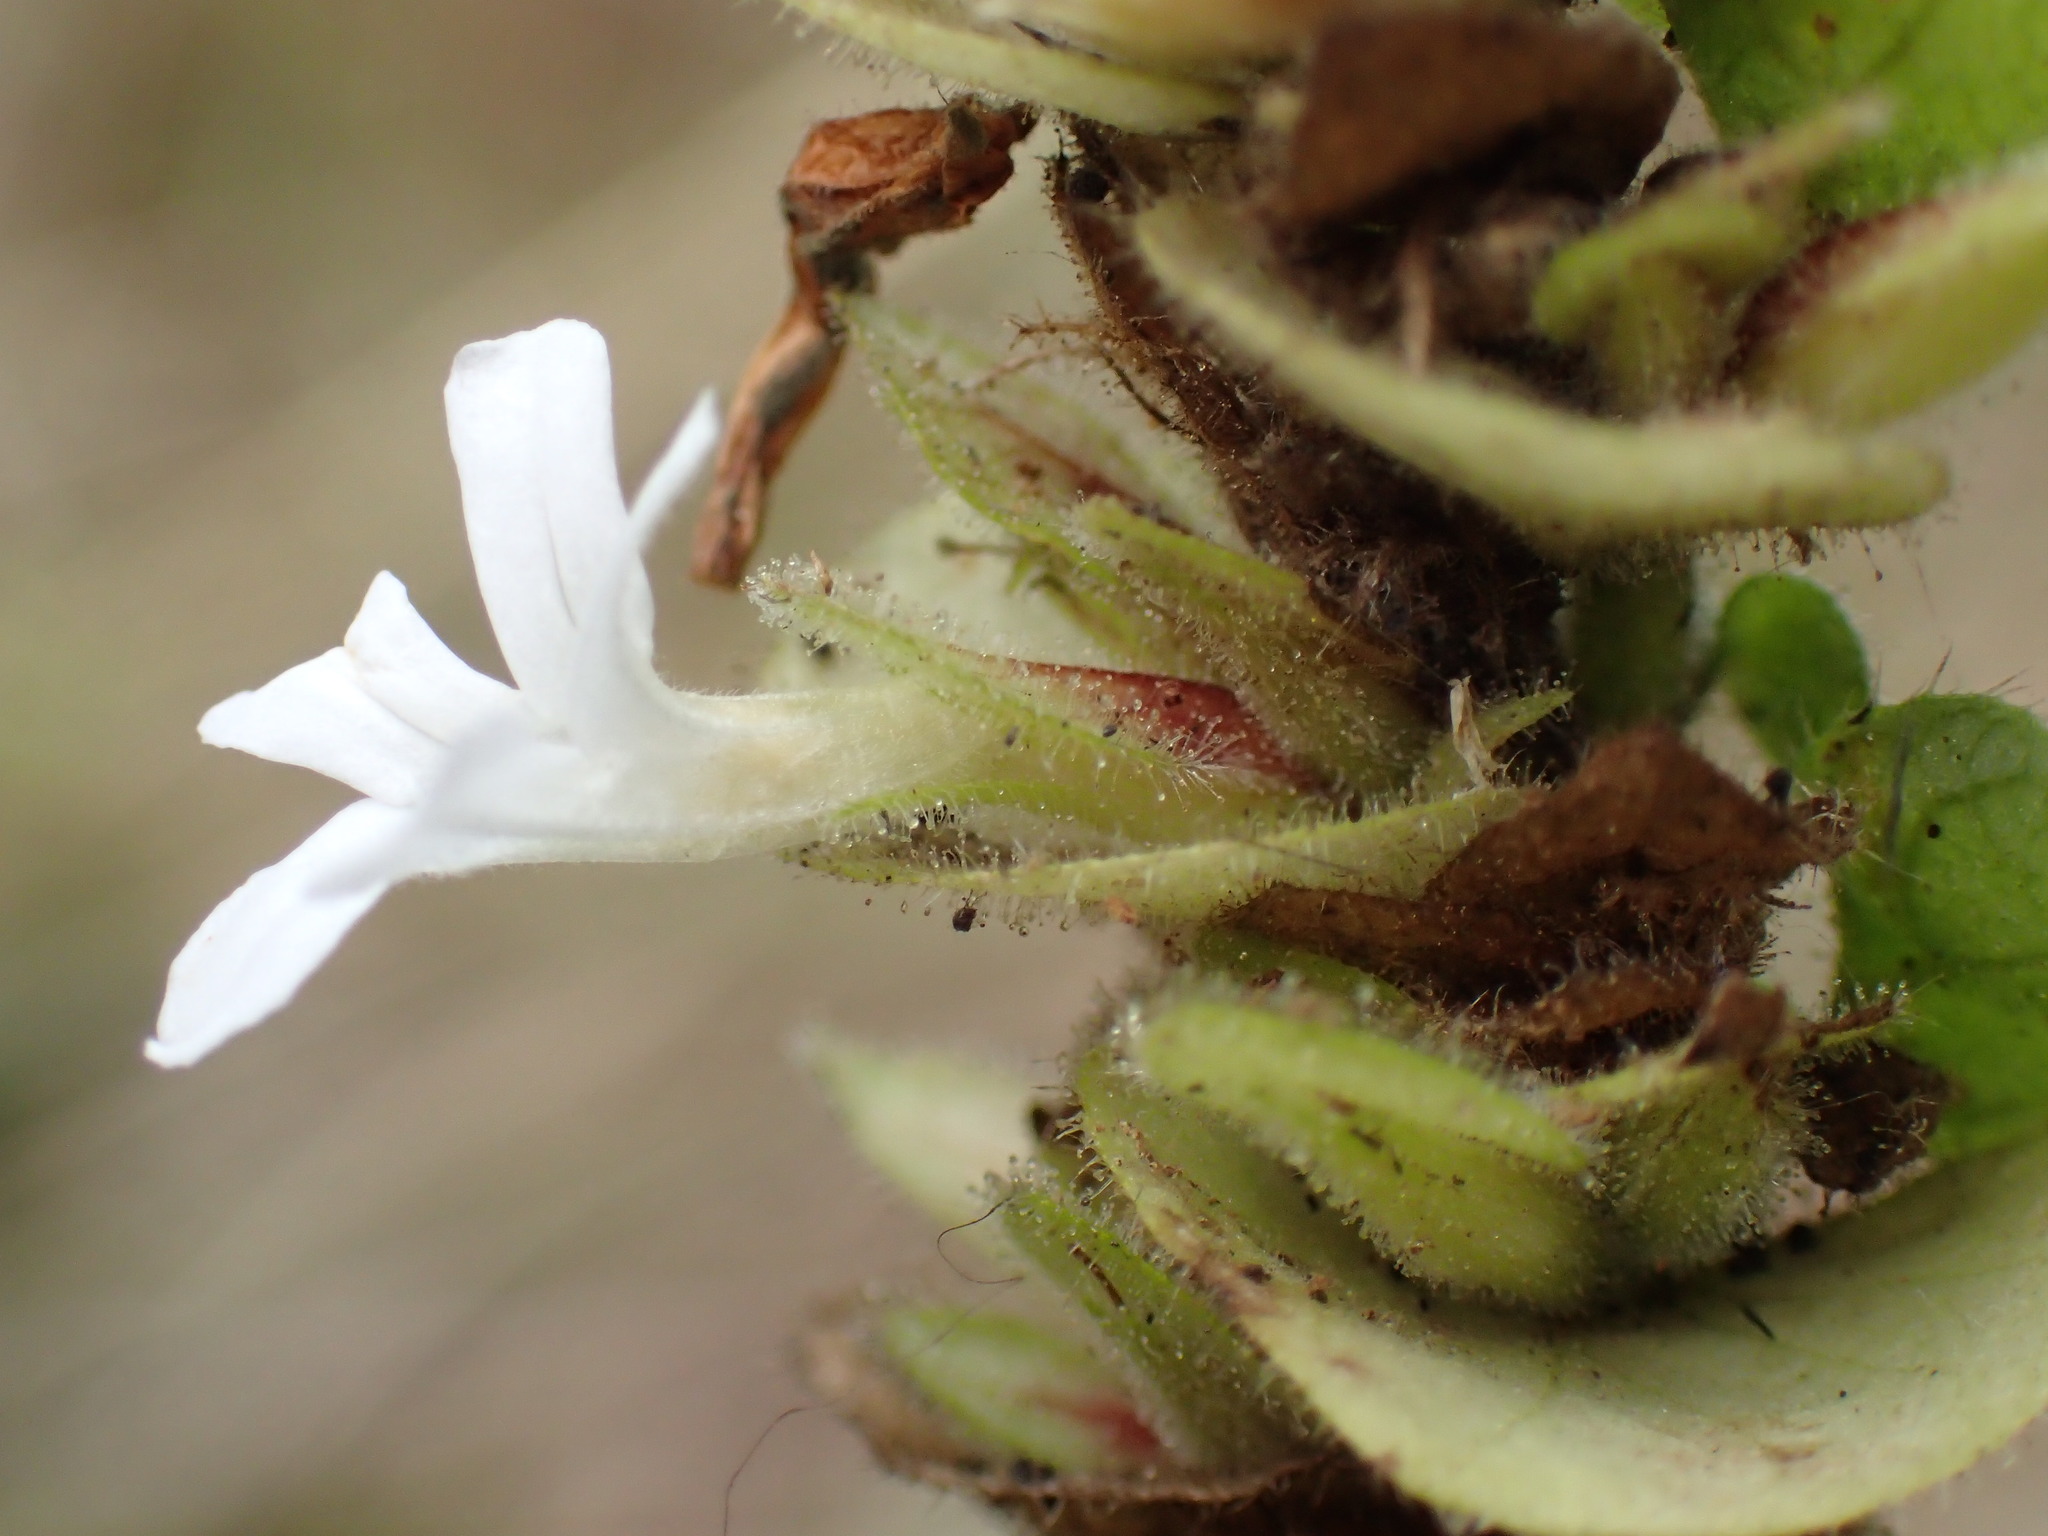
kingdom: Plantae
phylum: Tracheophyta
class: Magnoliopsida
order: Lamiales
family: Acanthaceae
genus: Phaulopsis
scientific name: Phaulopsis imbricata
